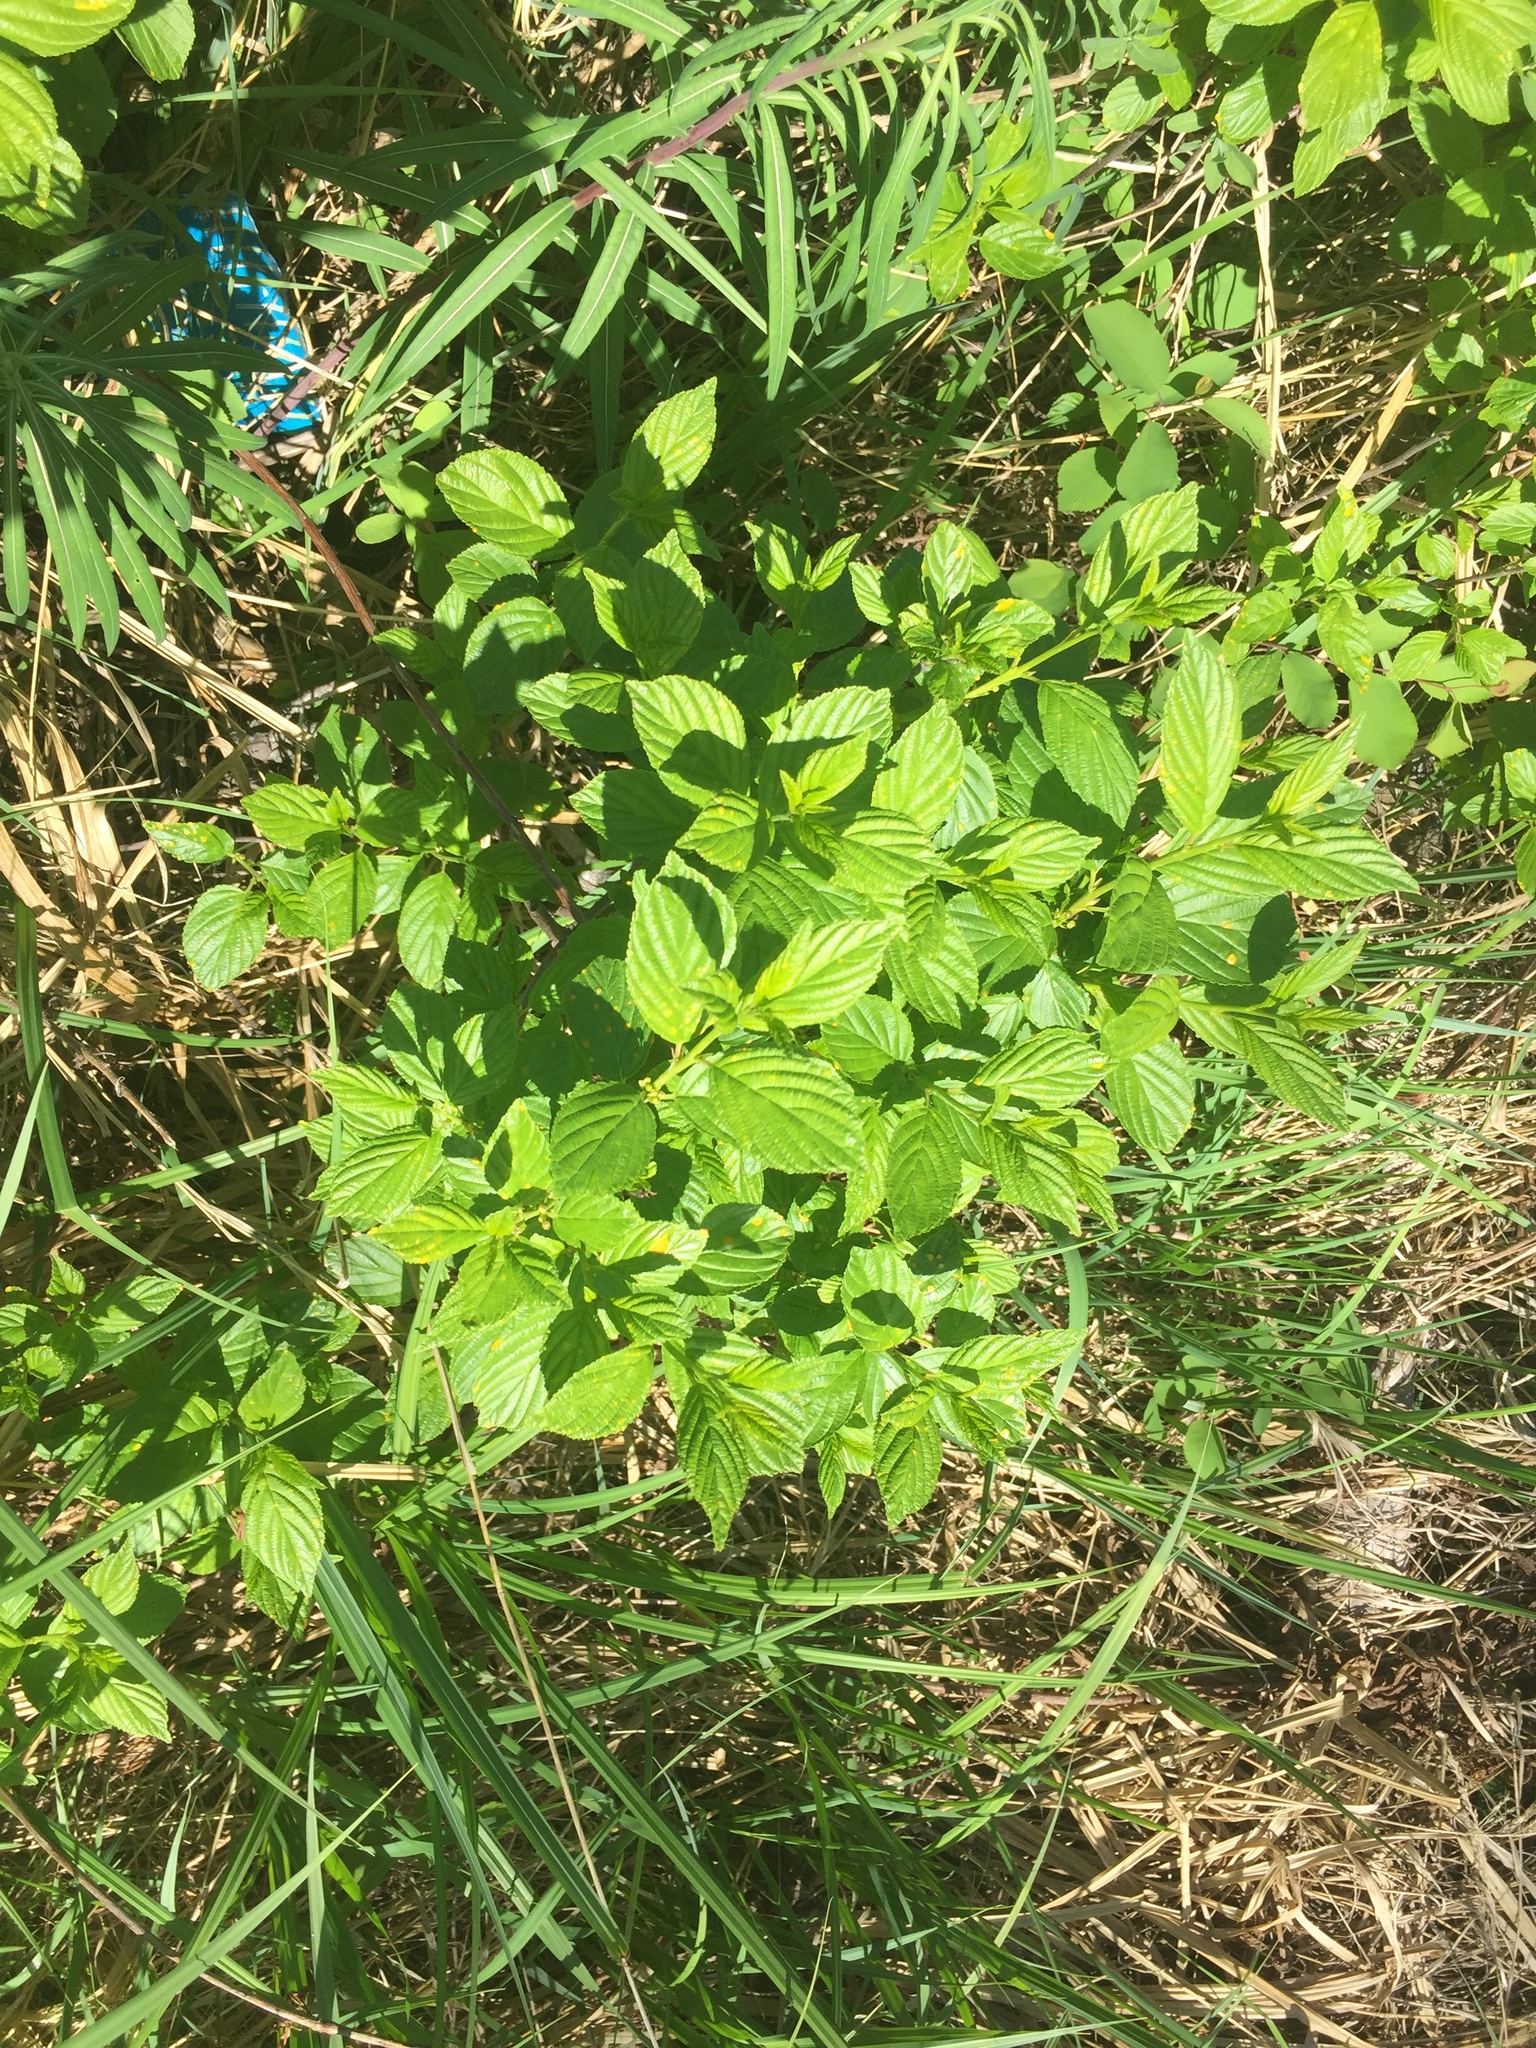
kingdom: Plantae
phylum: Tracheophyta
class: Magnoliopsida
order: Rosales
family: Rhamnaceae
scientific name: Rhamnaceae
